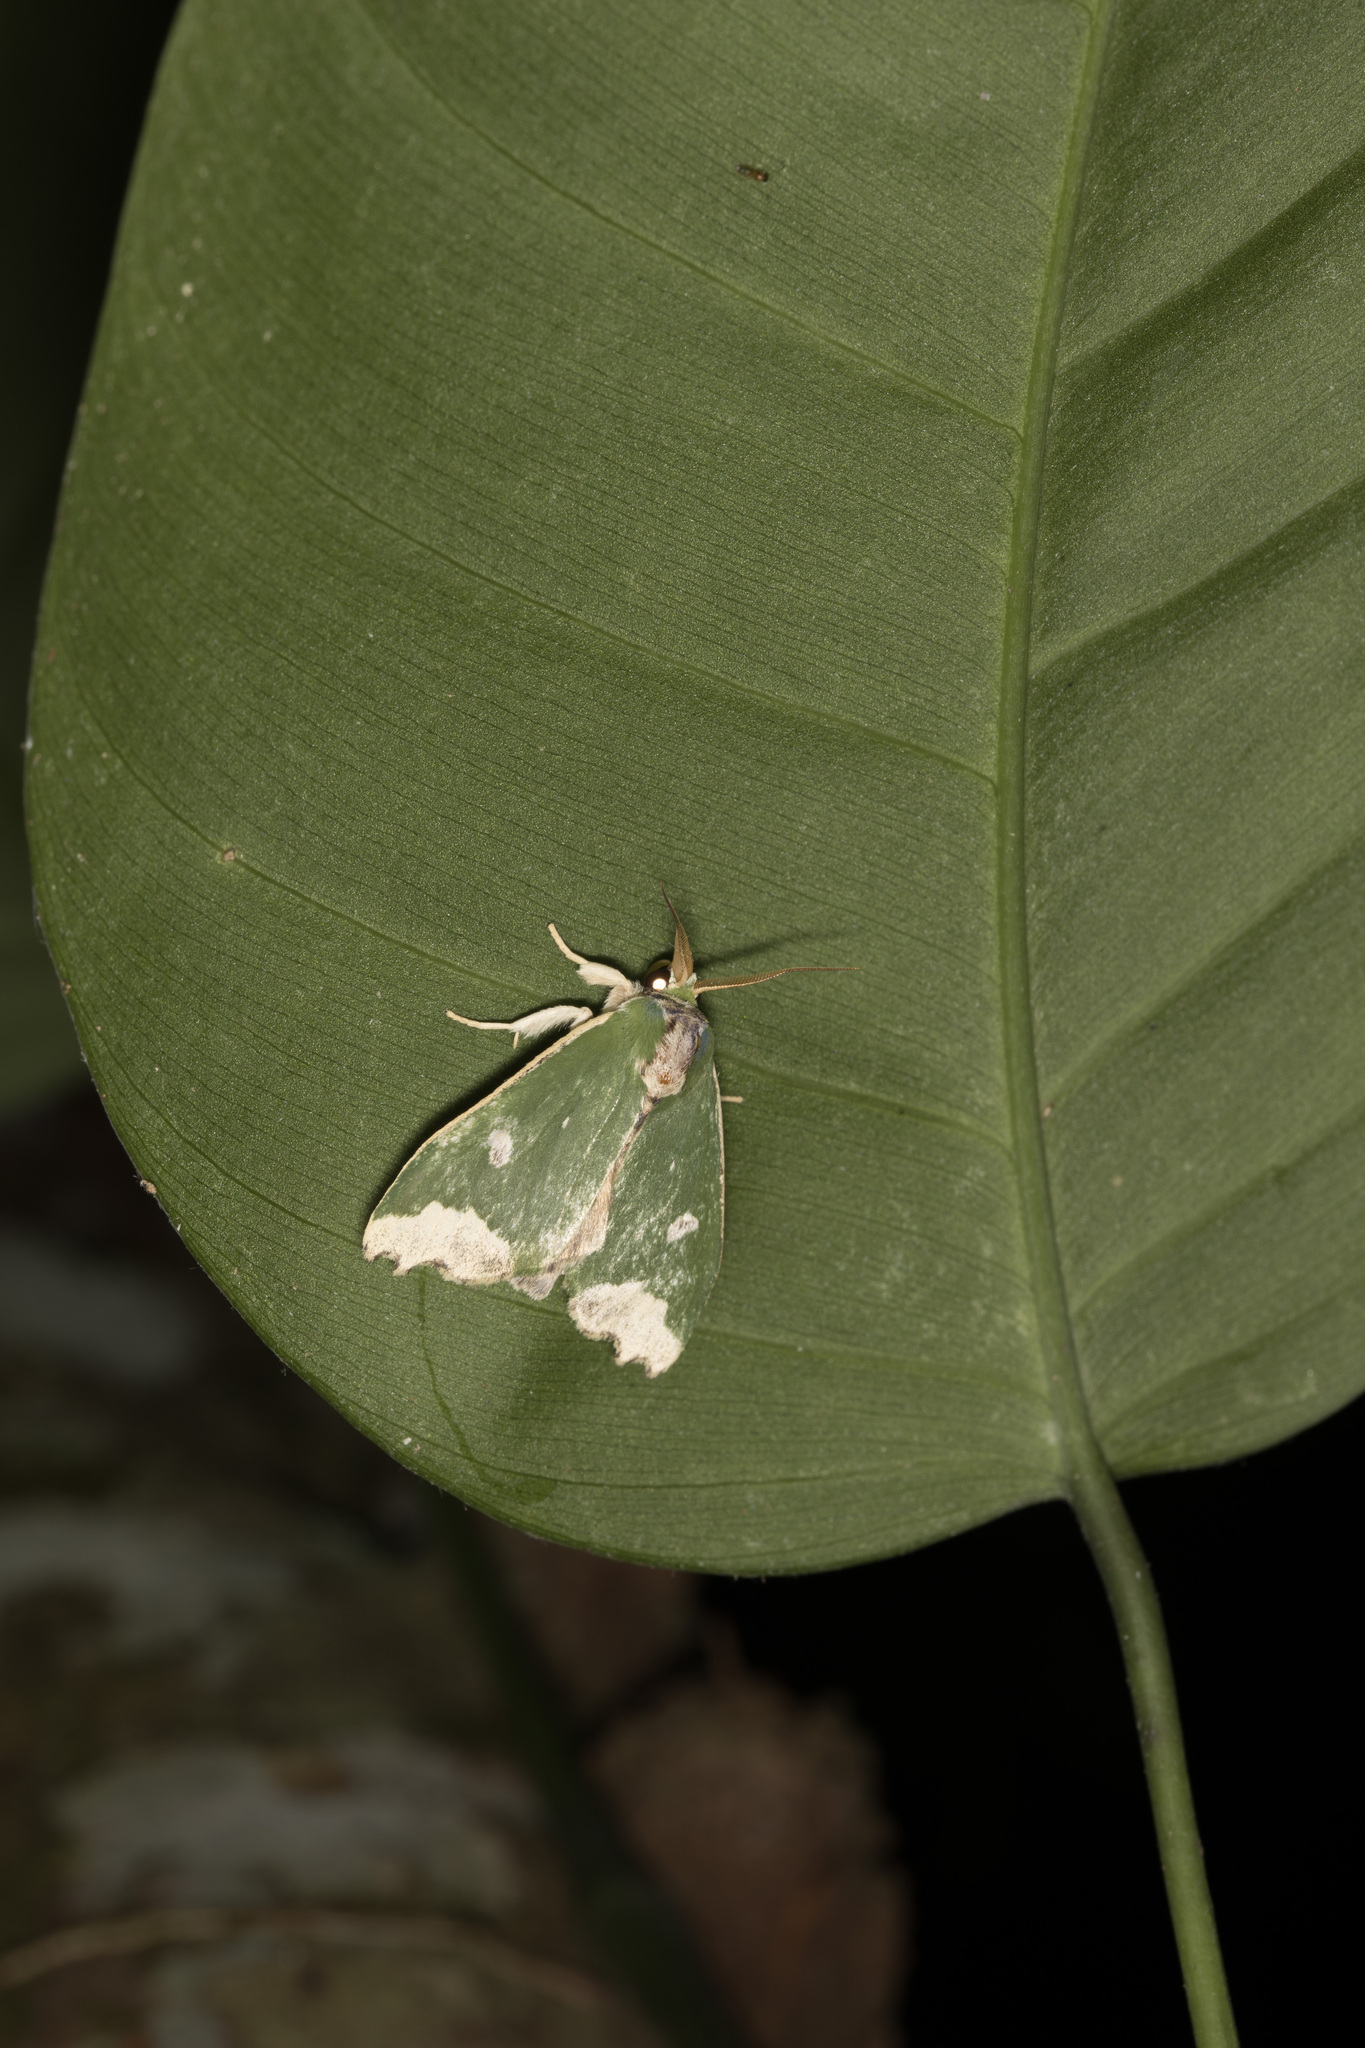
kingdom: Animalia
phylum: Arthropoda
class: Insecta
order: Lepidoptera
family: Notodontidae
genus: Rosema
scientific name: Rosema epigena
